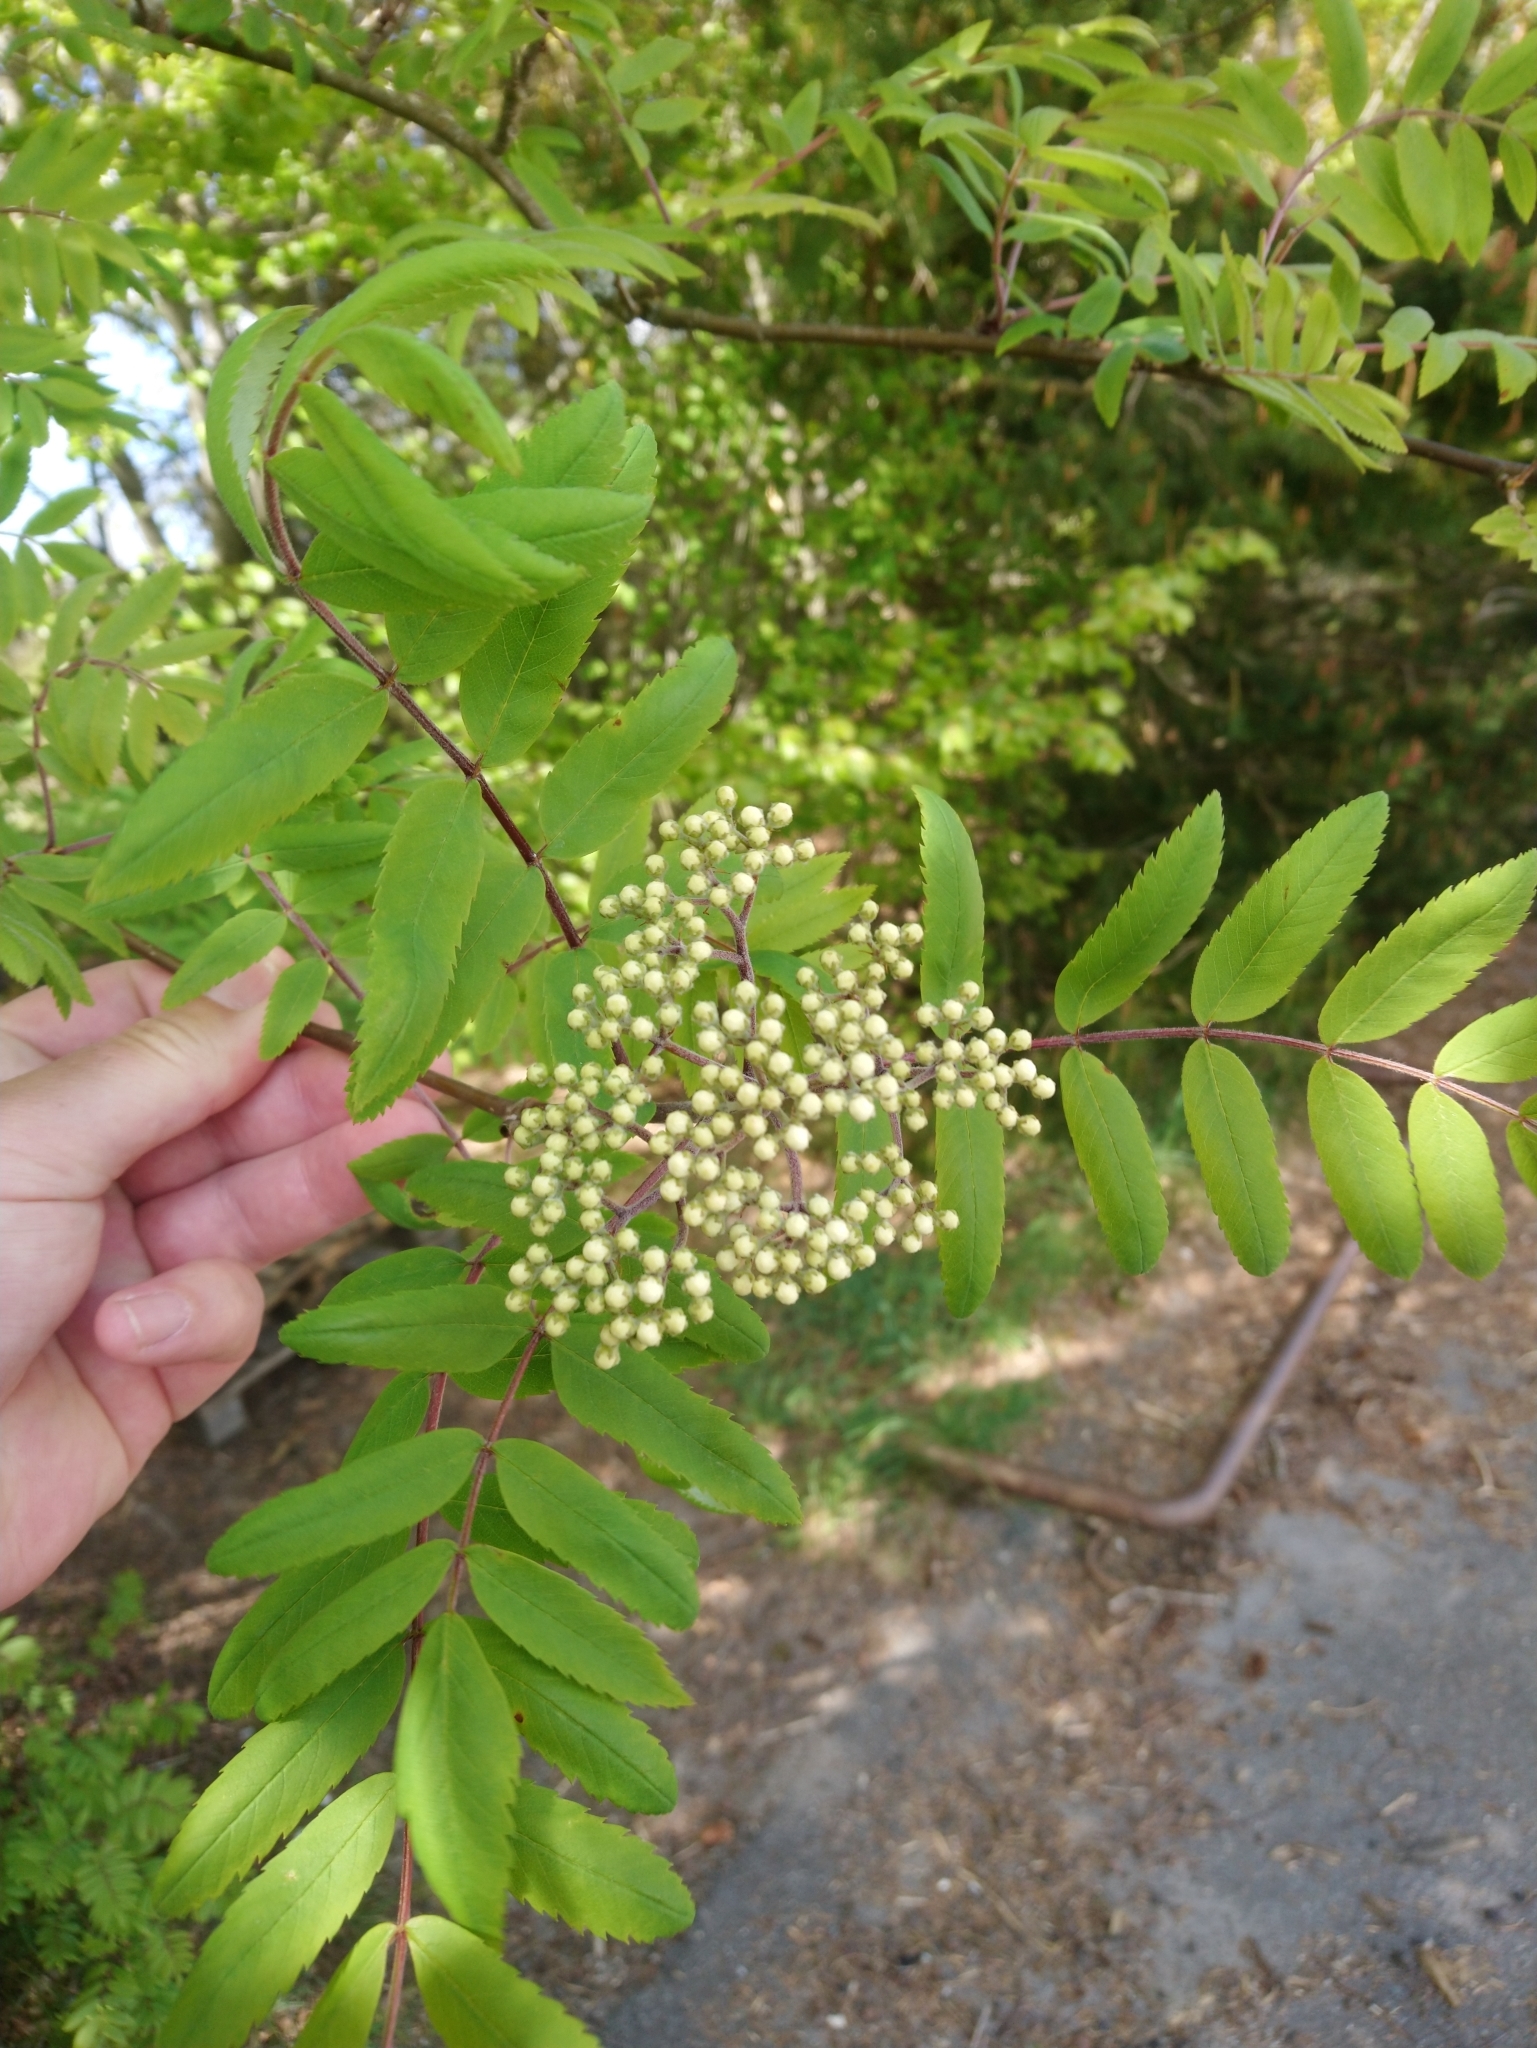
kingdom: Plantae
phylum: Tracheophyta
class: Magnoliopsida
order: Rosales
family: Rosaceae
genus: Sorbus
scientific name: Sorbus aucuparia
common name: Rowan
